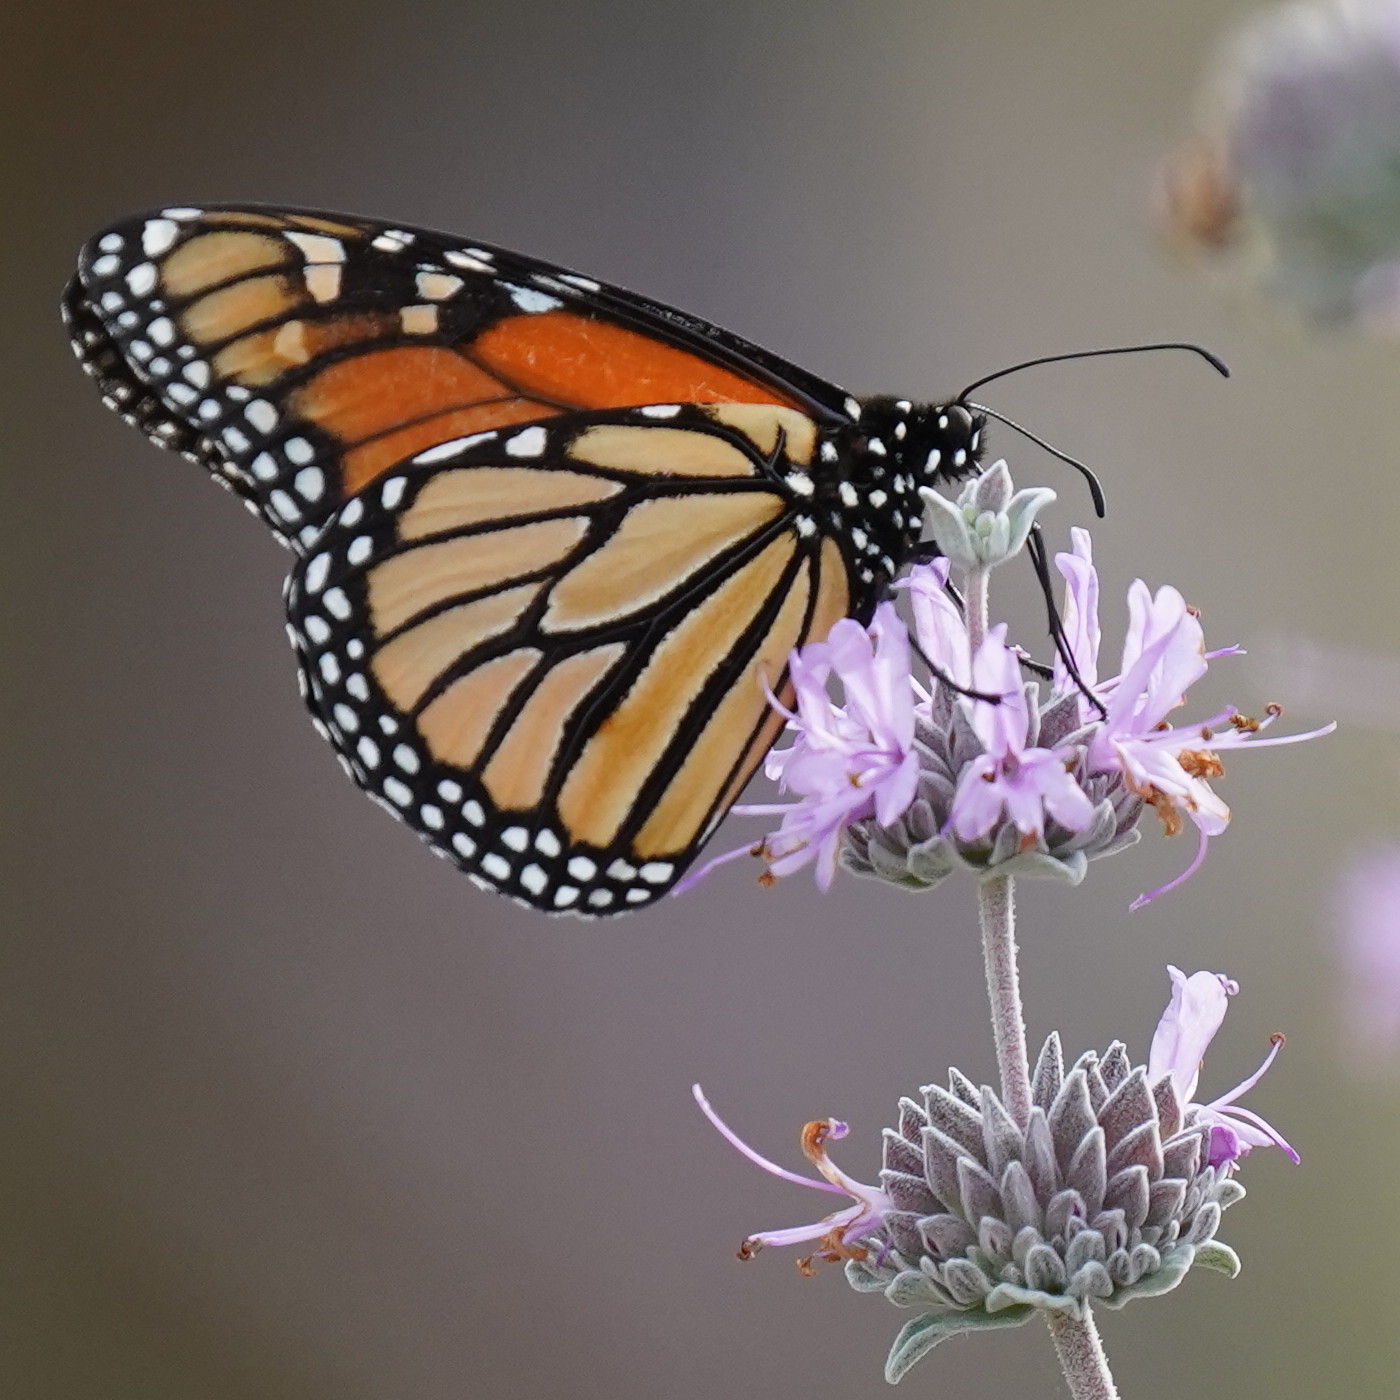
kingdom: Animalia
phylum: Arthropoda
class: Insecta
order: Lepidoptera
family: Nymphalidae
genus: Danaus
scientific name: Danaus plexippus
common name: Monarch
